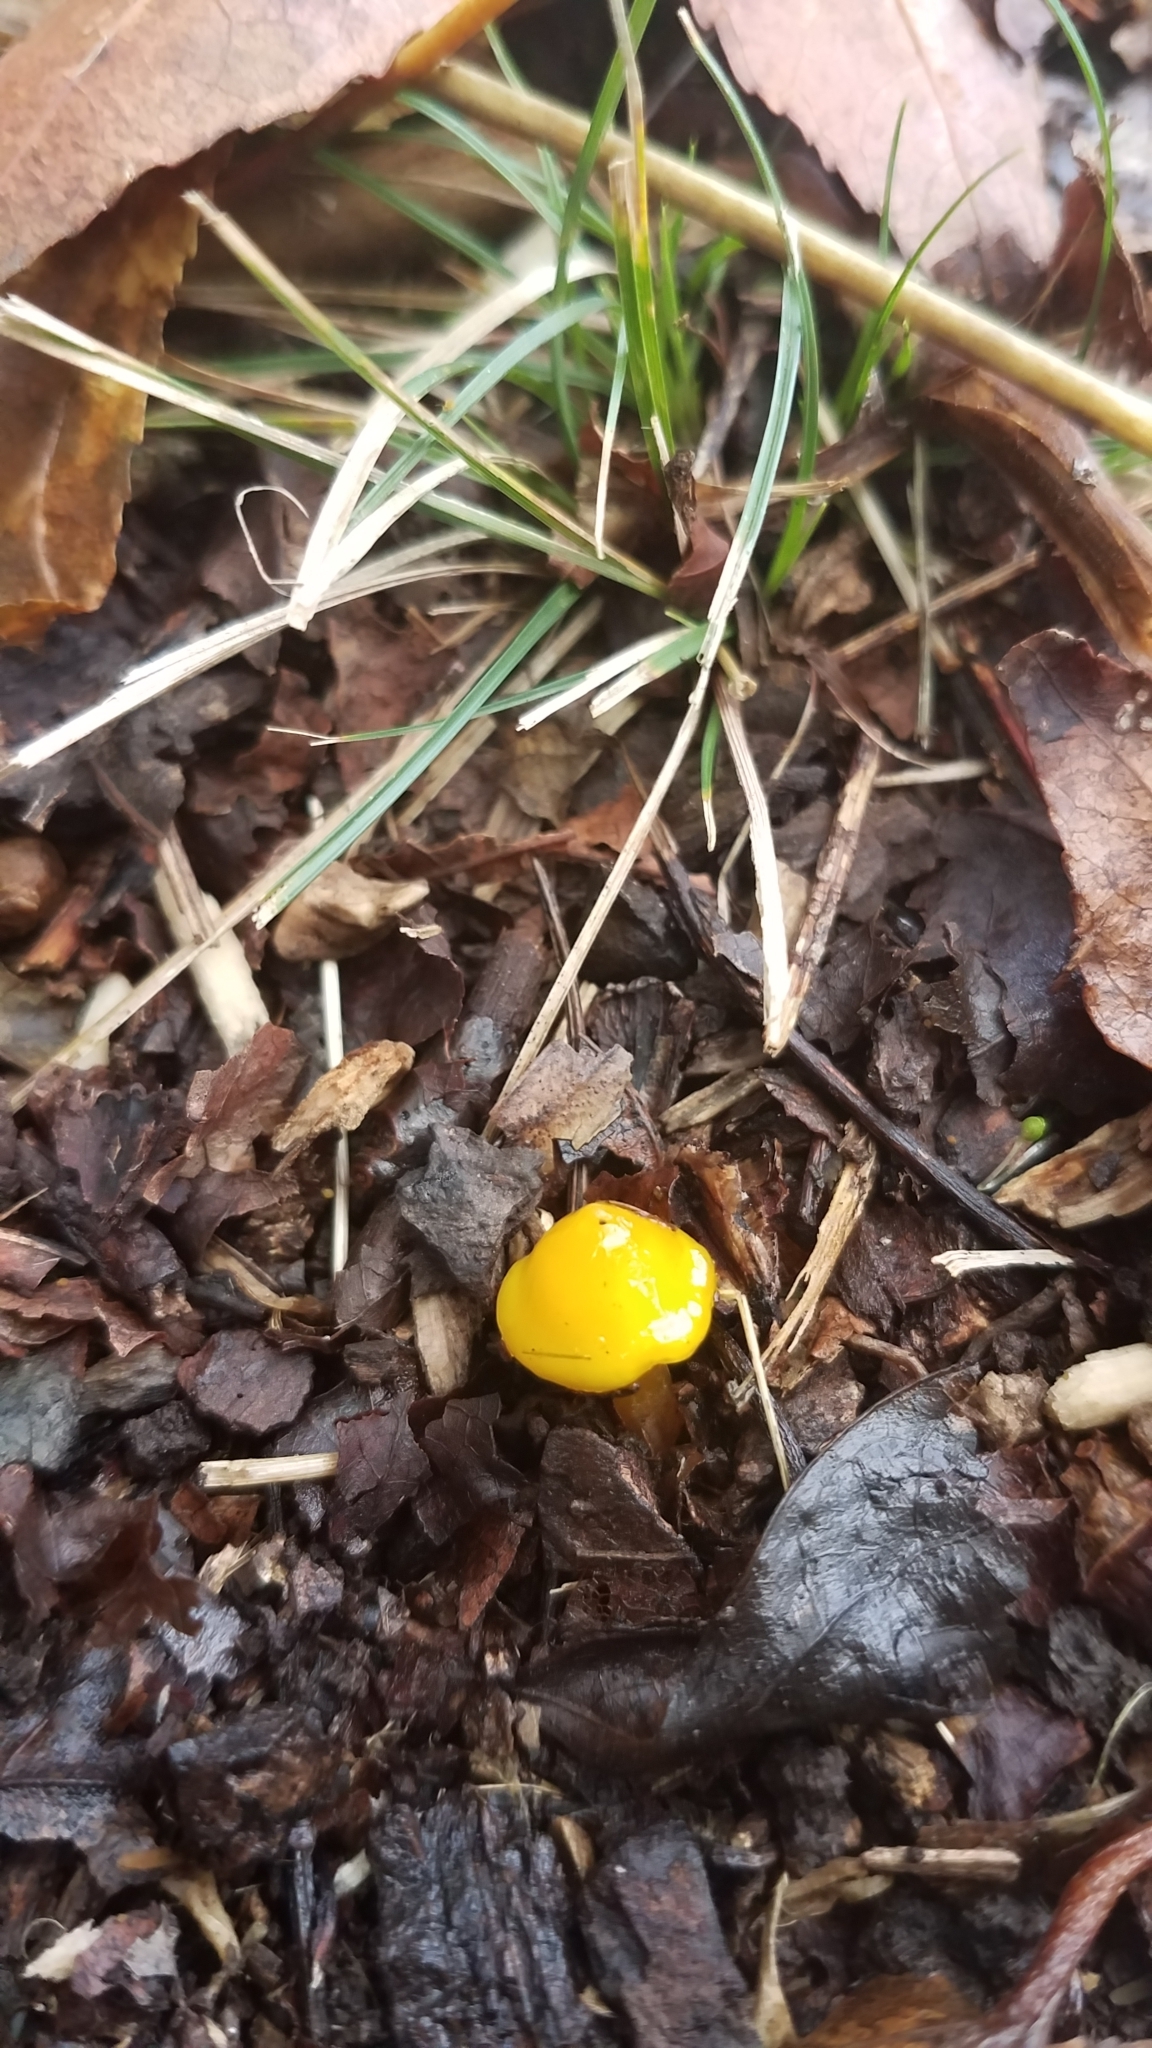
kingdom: Fungi
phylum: Basidiomycota
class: Agaricomycetes
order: Agaricales
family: Hygrophoraceae
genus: Humidicutis
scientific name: Humidicutis marginata
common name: Orange gilled waxcap
